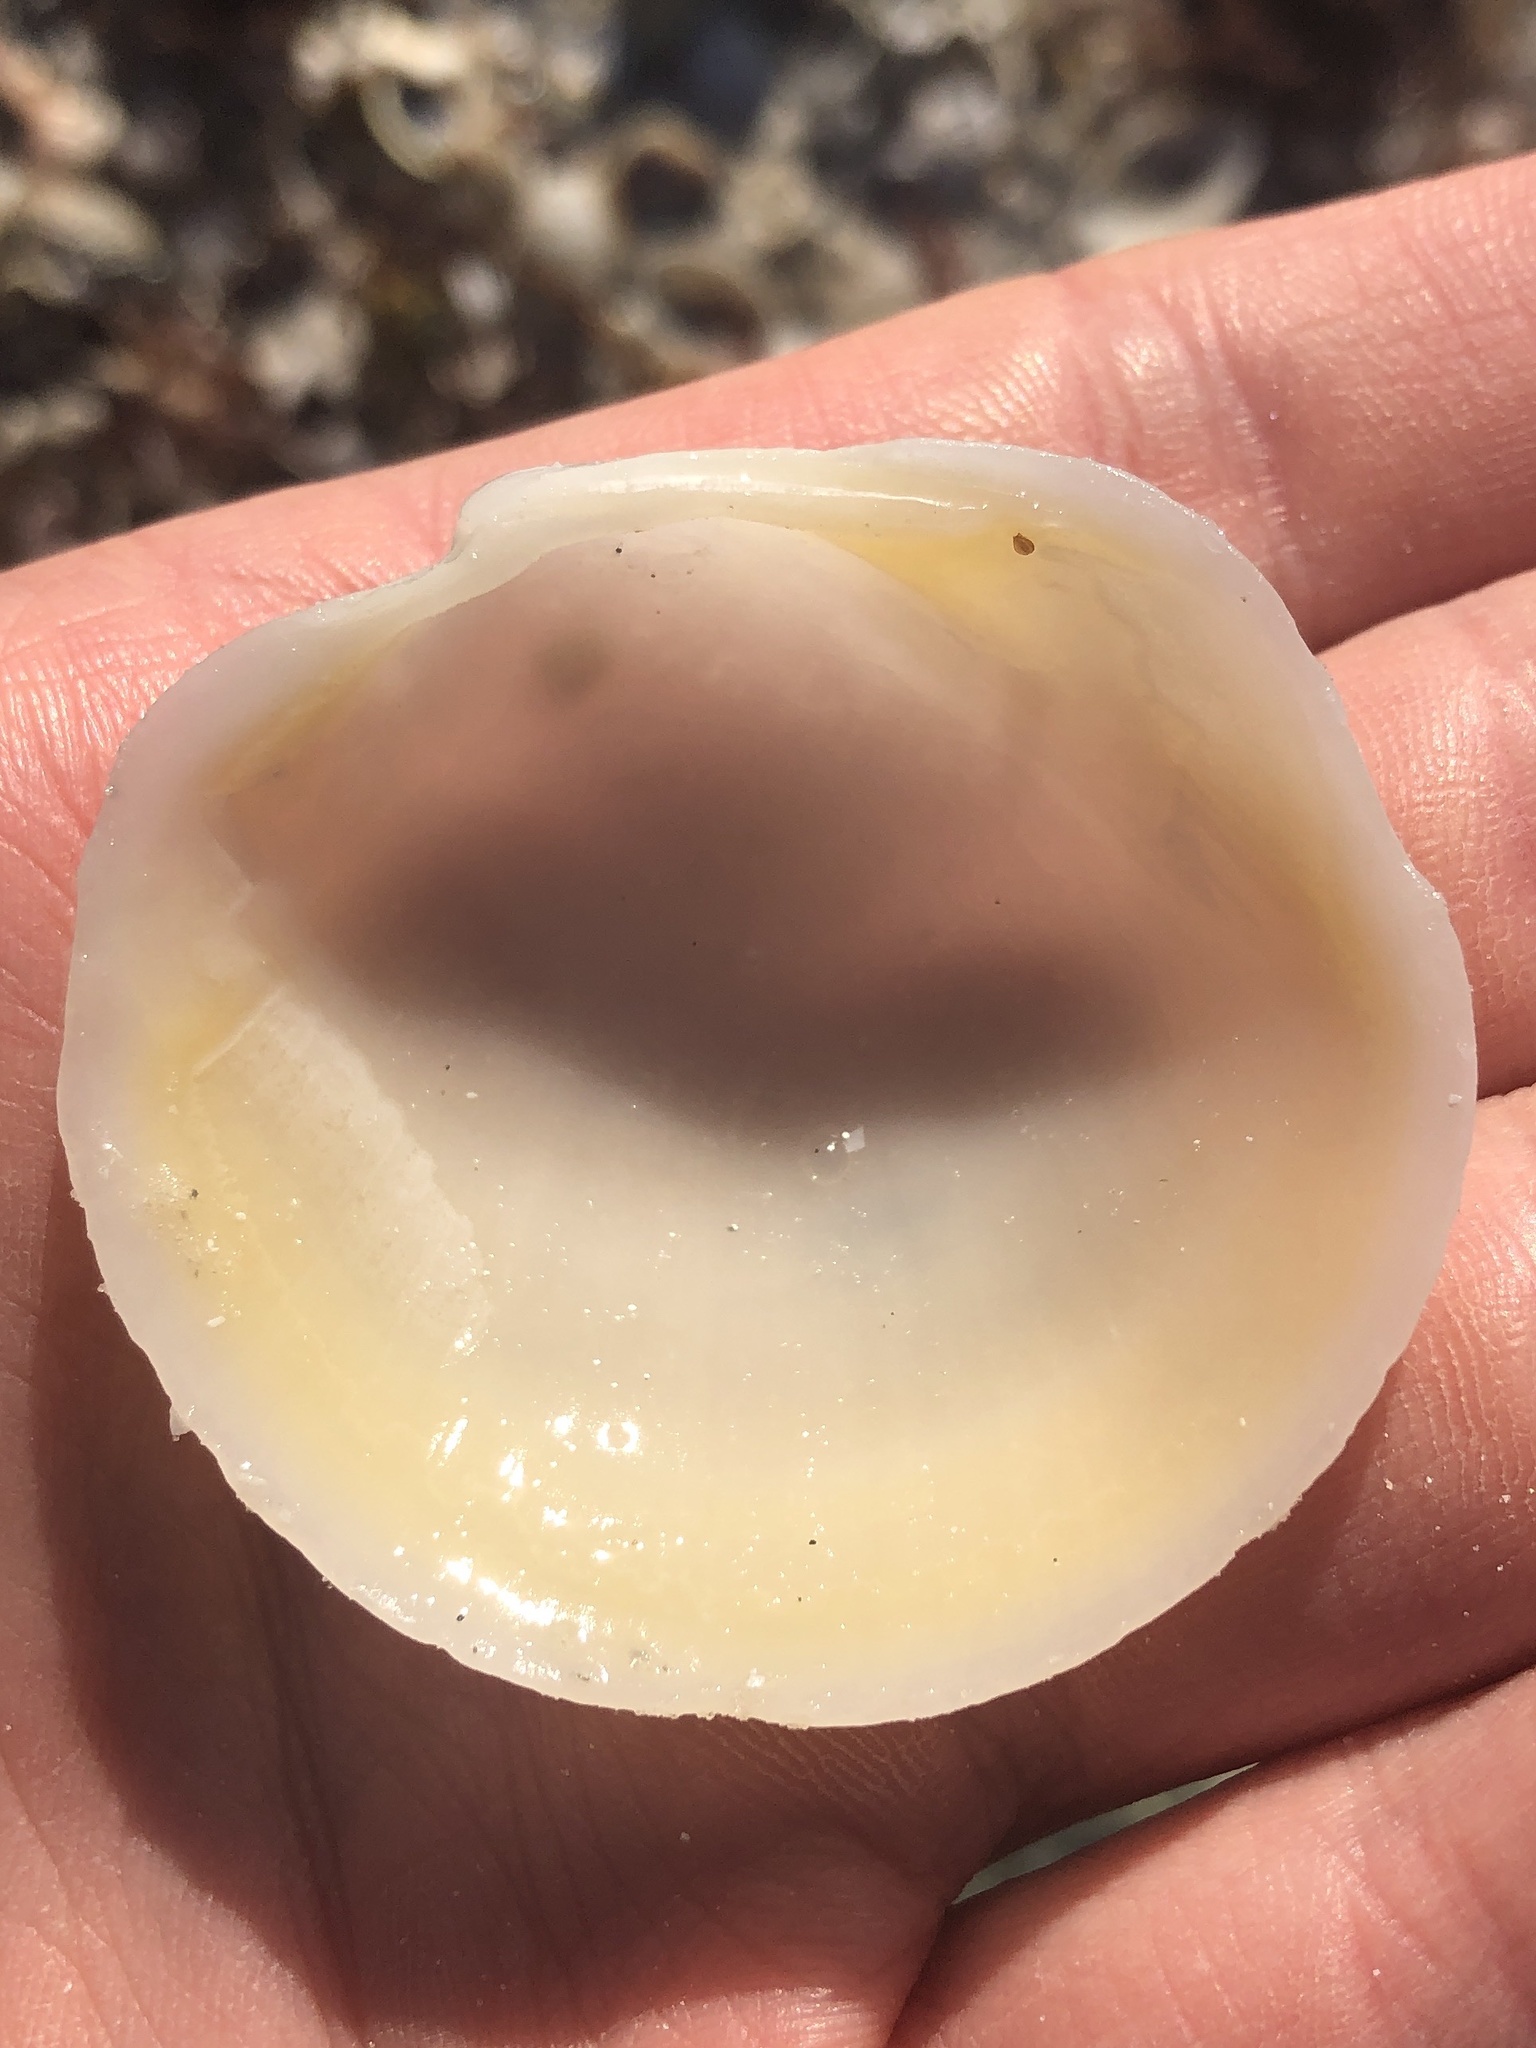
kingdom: Animalia
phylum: Mollusca
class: Bivalvia
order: Lucinida
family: Lucinidae
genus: Anodontia
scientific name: Anodontia alba
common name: Buttercup lucine
